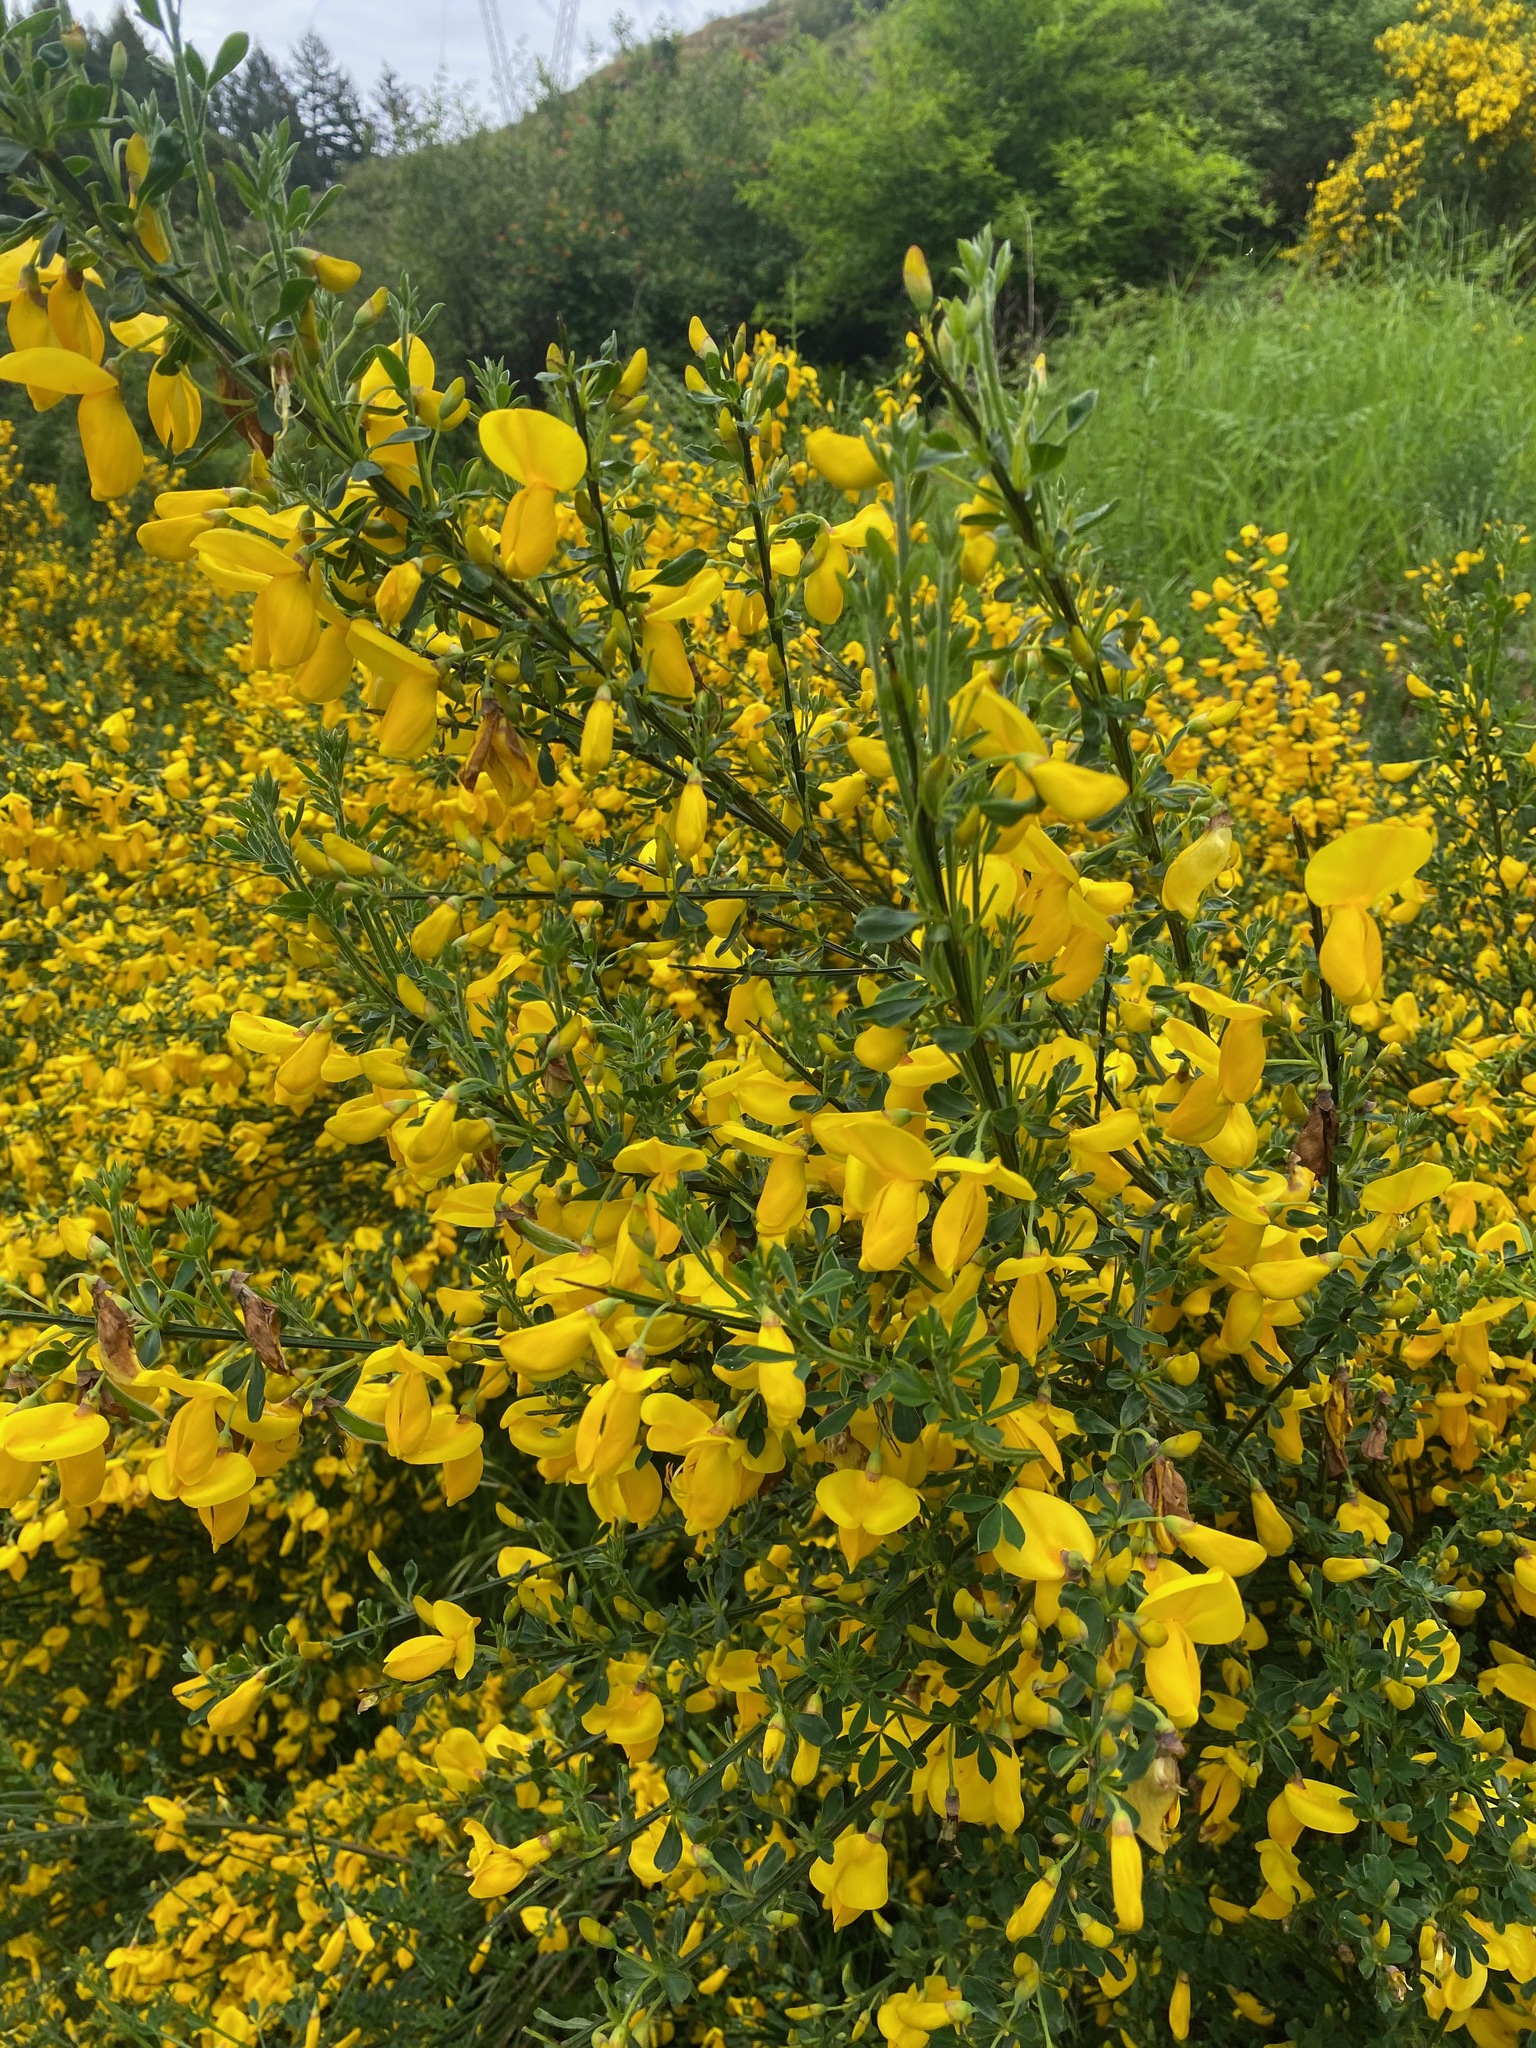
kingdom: Plantae
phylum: Tracheophyta
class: Magnoliopsida
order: Fabales
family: Fabaceae
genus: Cytisus
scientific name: Cytisus scoparius
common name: Scotch broom
